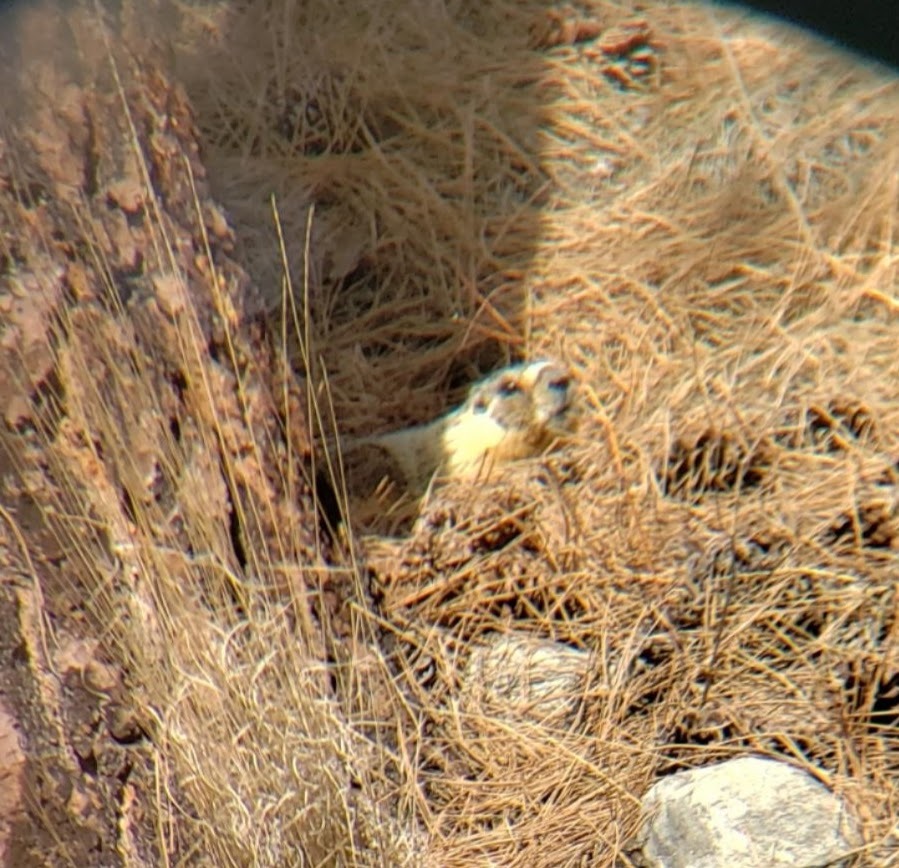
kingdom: Animalia
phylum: Chordata
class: Mammalia
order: Rodentia
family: Sciuridae
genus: Marmota
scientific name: Marmota flaviventris
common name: Yellow-bellied marmot
